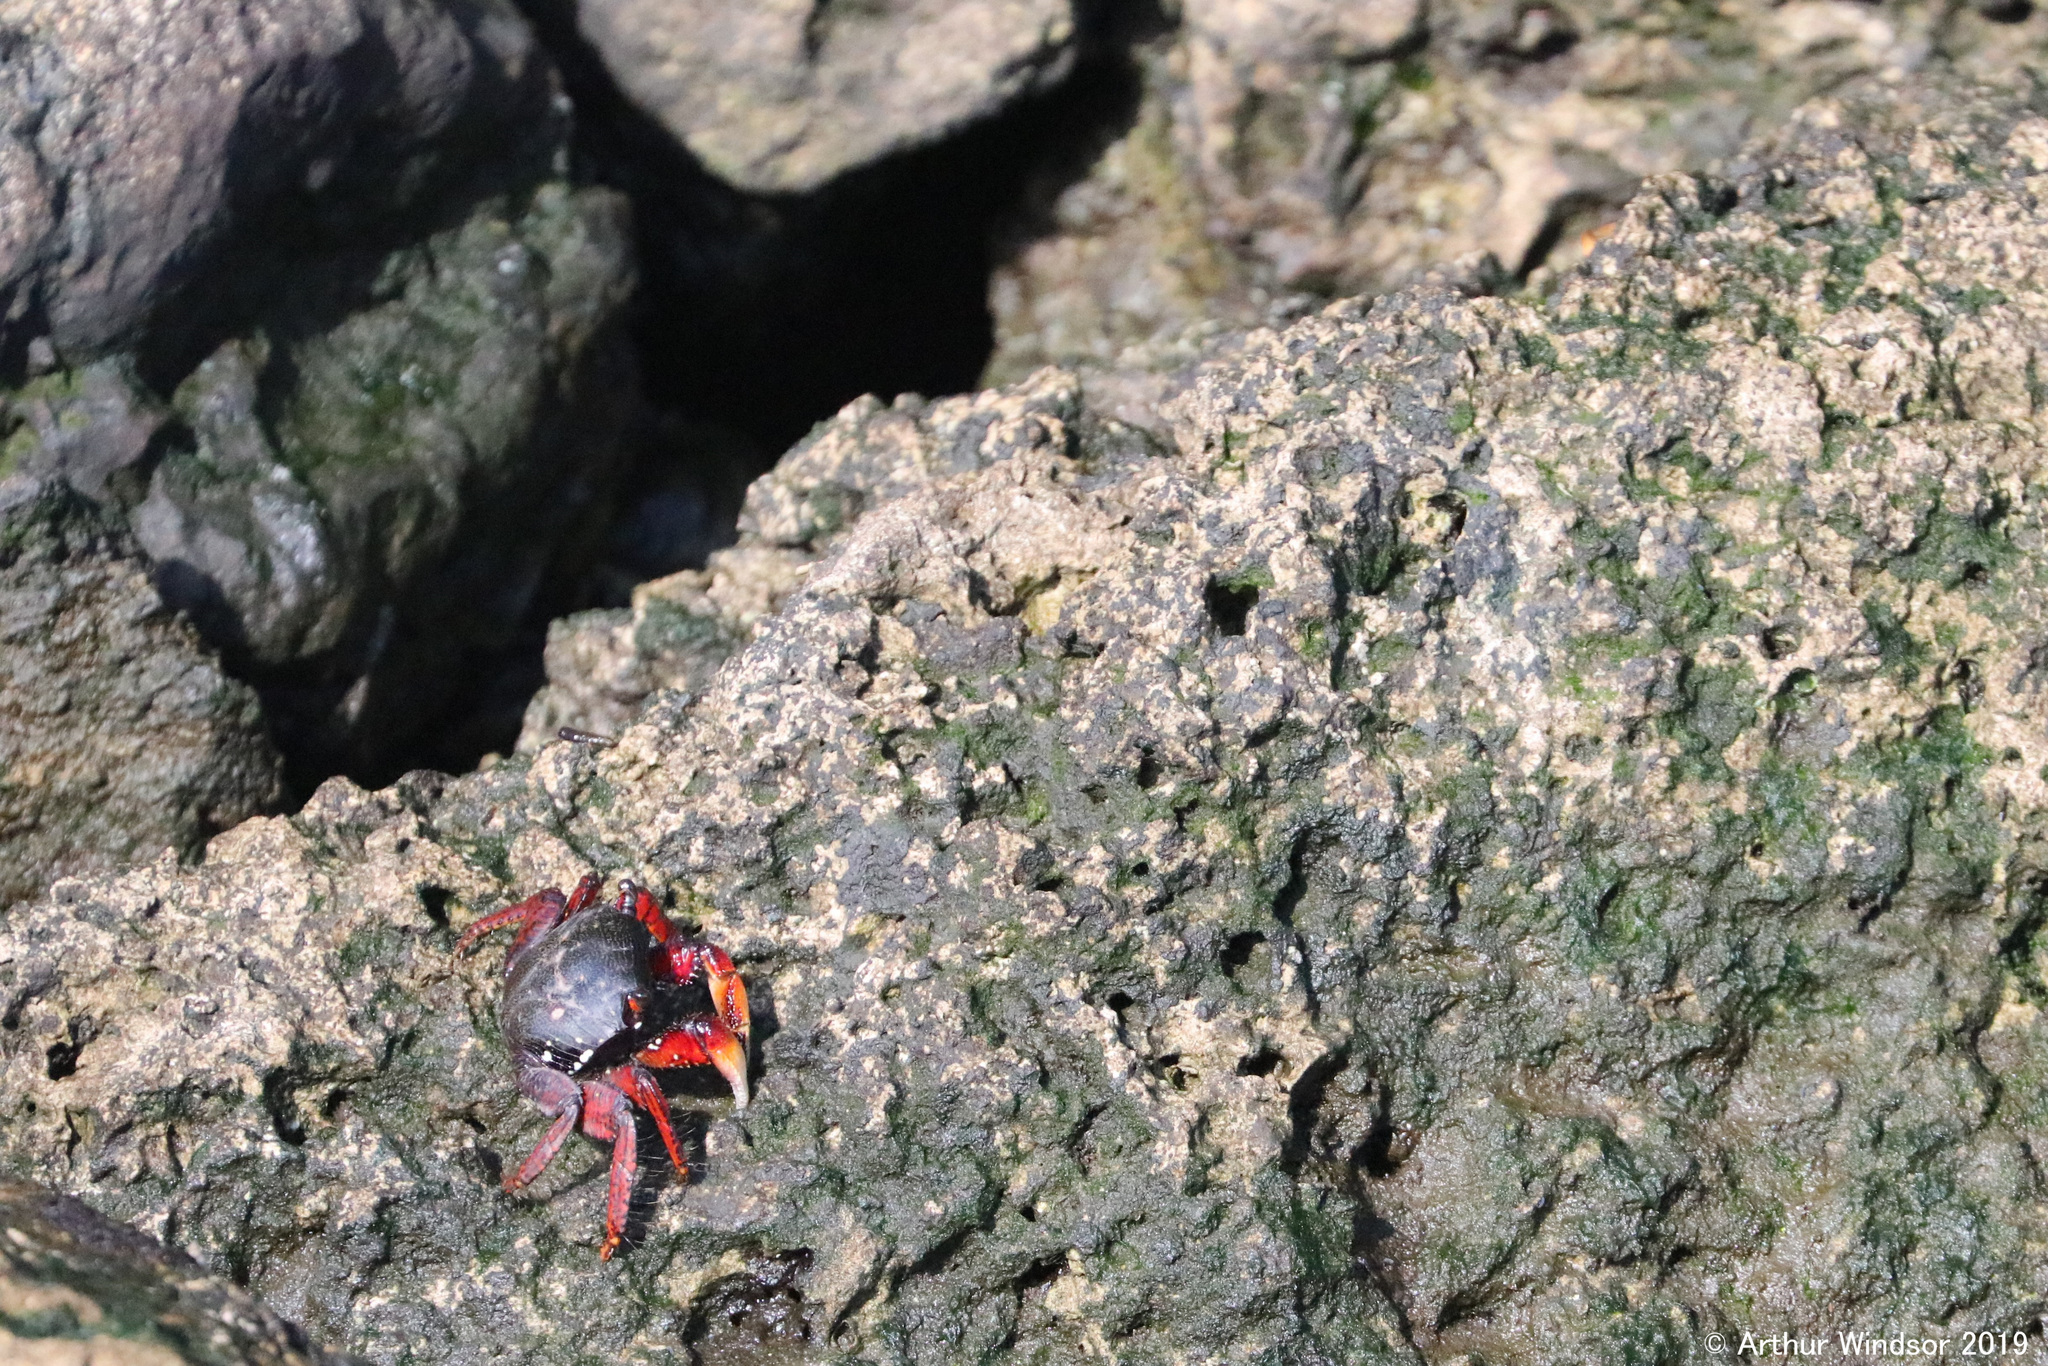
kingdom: Animalia
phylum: Arthropoda
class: Malacostraca
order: Decapoda
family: Grapsidae
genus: Goniopsis
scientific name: Goniopsis cruentata
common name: Mangrove crab
